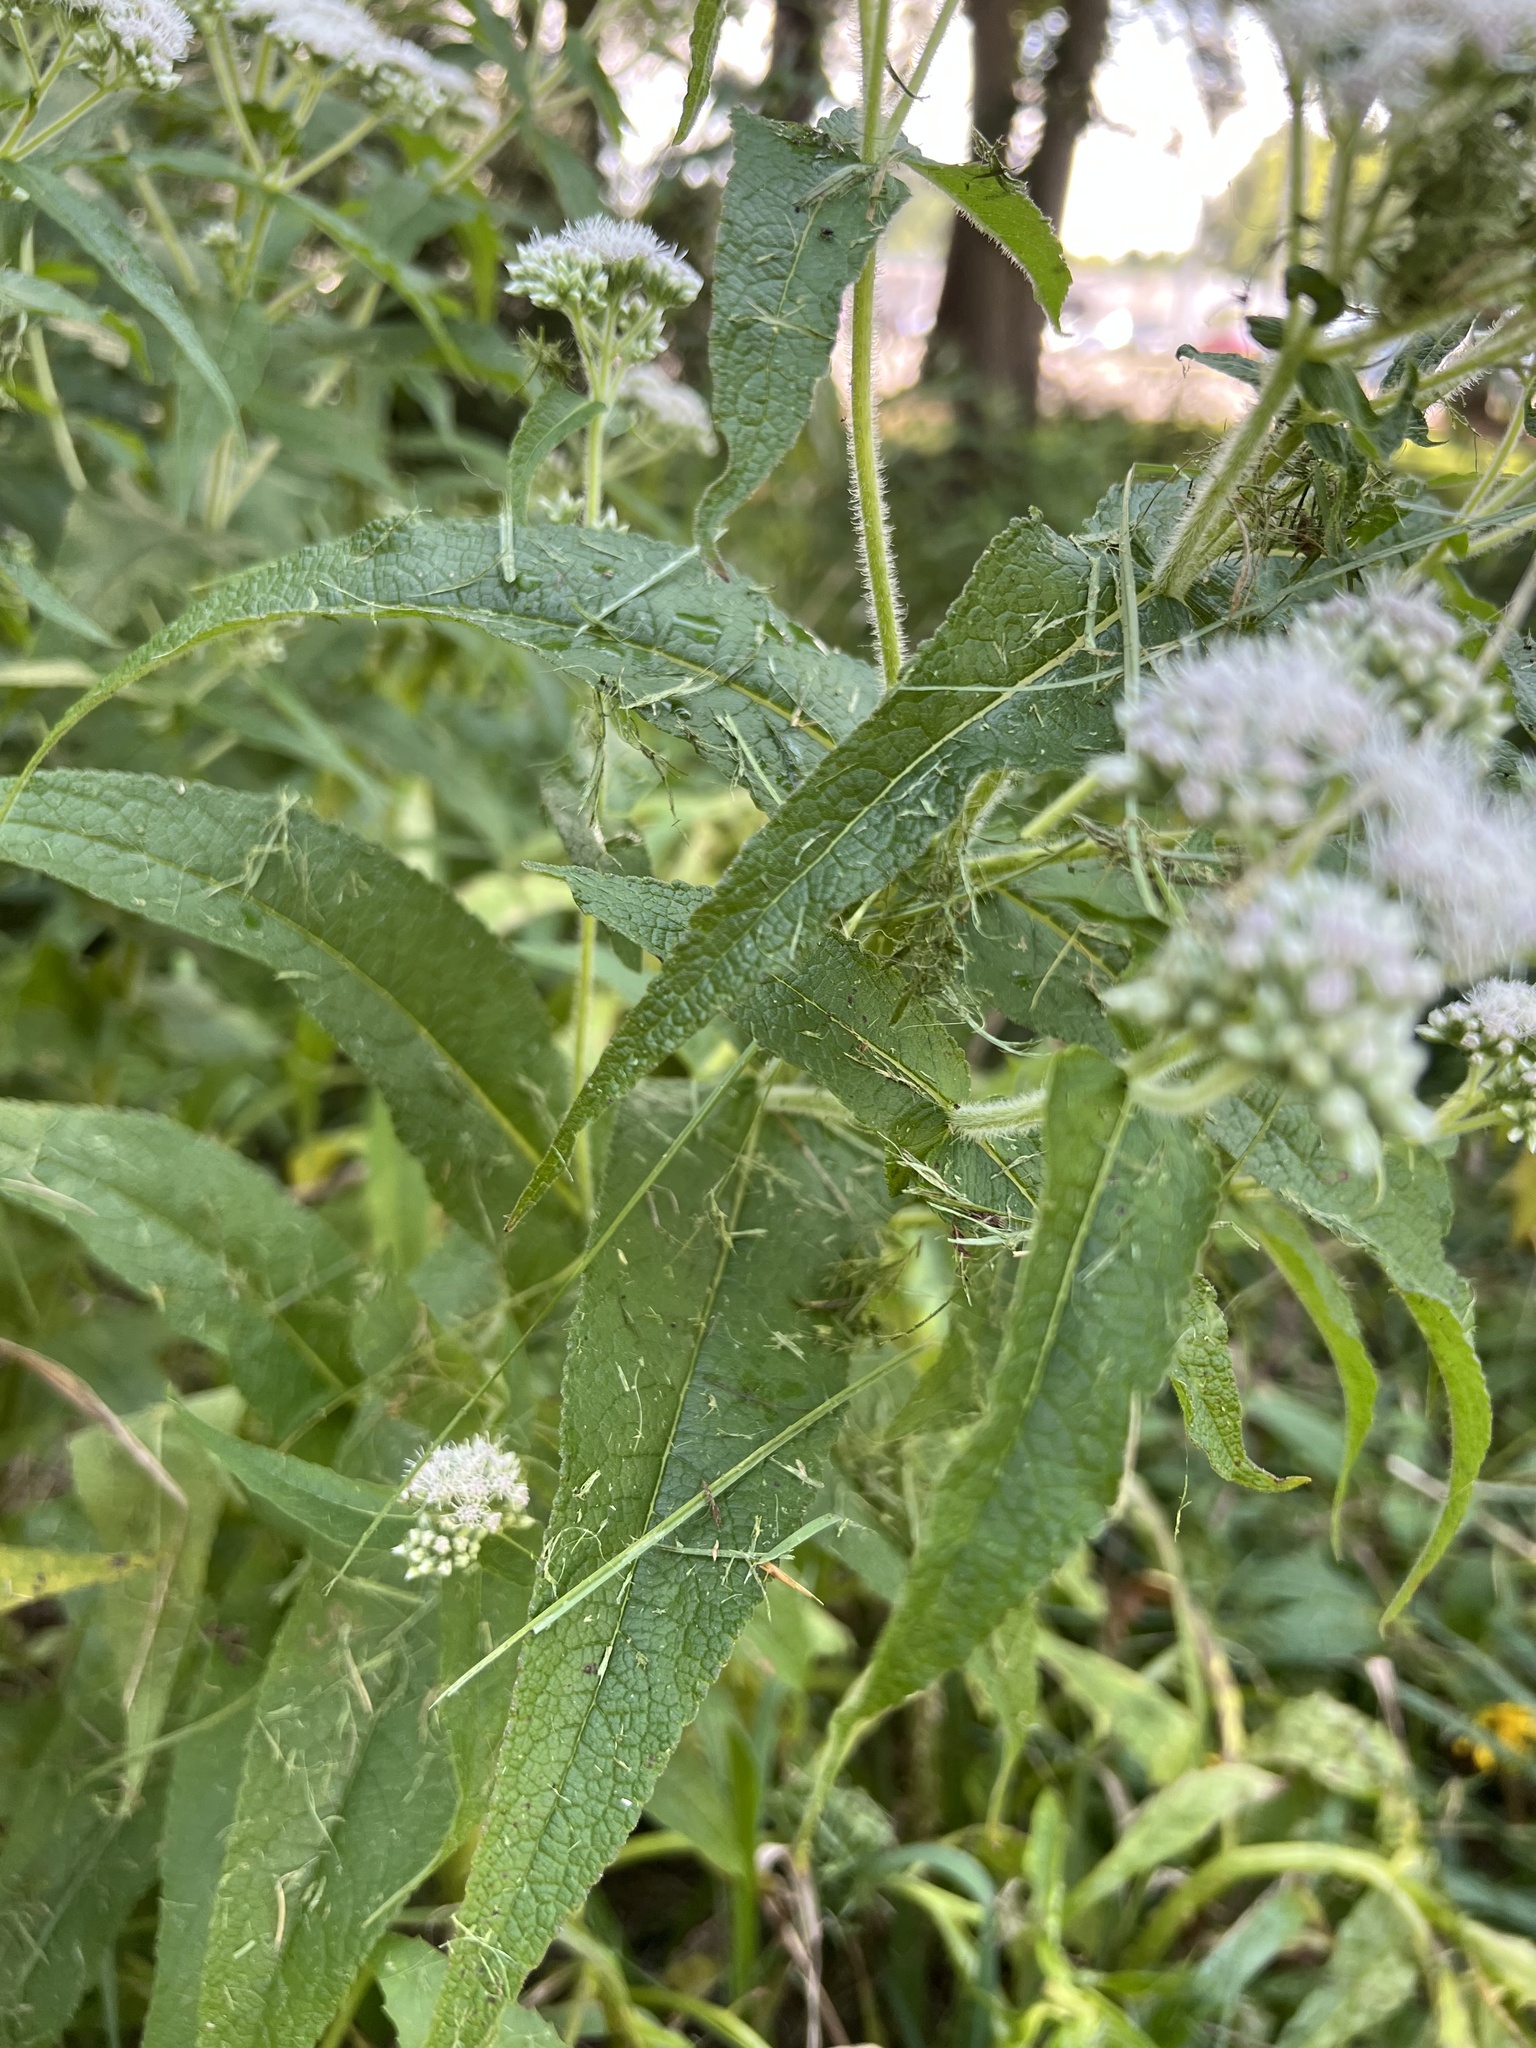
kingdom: Plantae
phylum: Tracheophyta
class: Magnoliopsida
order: Asterales
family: Asteraceae
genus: Eupatorium
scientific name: Eupatorium perfoliatum
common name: Boneset
